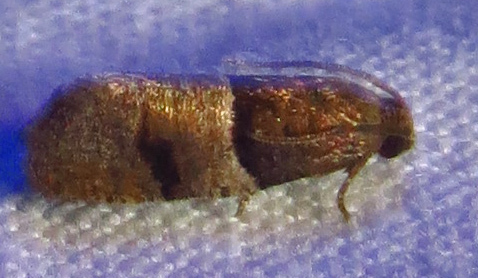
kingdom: Animalia
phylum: Arthropoda
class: Insecta
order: Lepidoptera
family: Tortricidae
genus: Larisa
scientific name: Larisa subsolana
